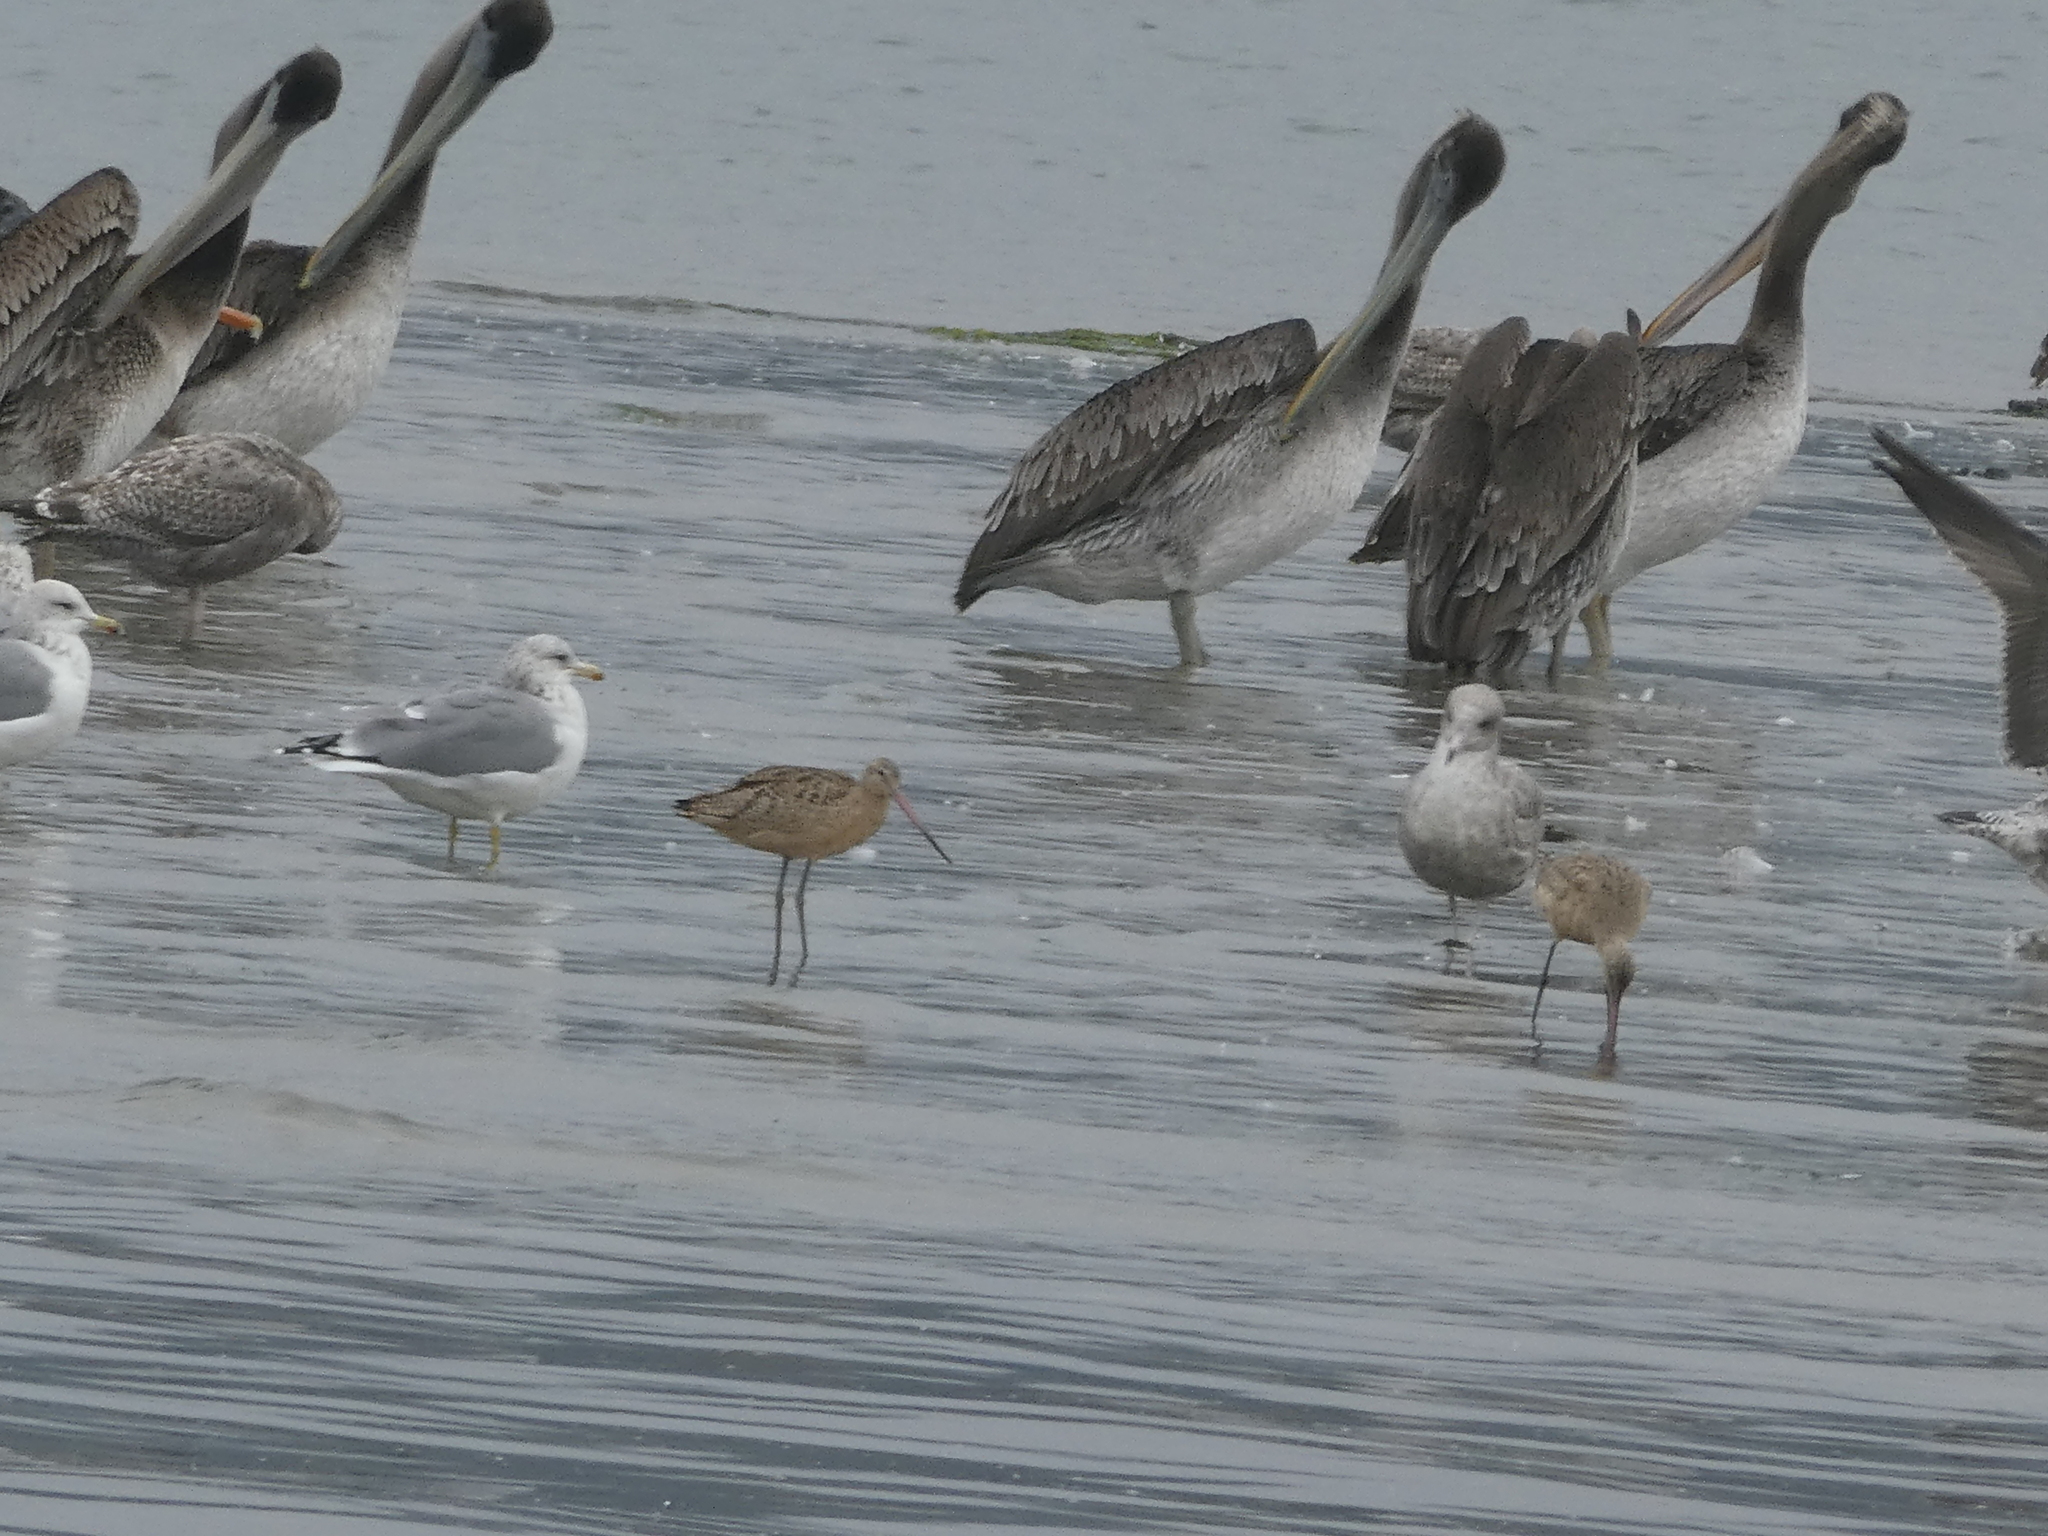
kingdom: Animalia
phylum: Chordata
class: Aves
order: Charadriiformes
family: Scolopacidae
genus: Limosa
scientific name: Limosa fedoa
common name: Marbled godwit
